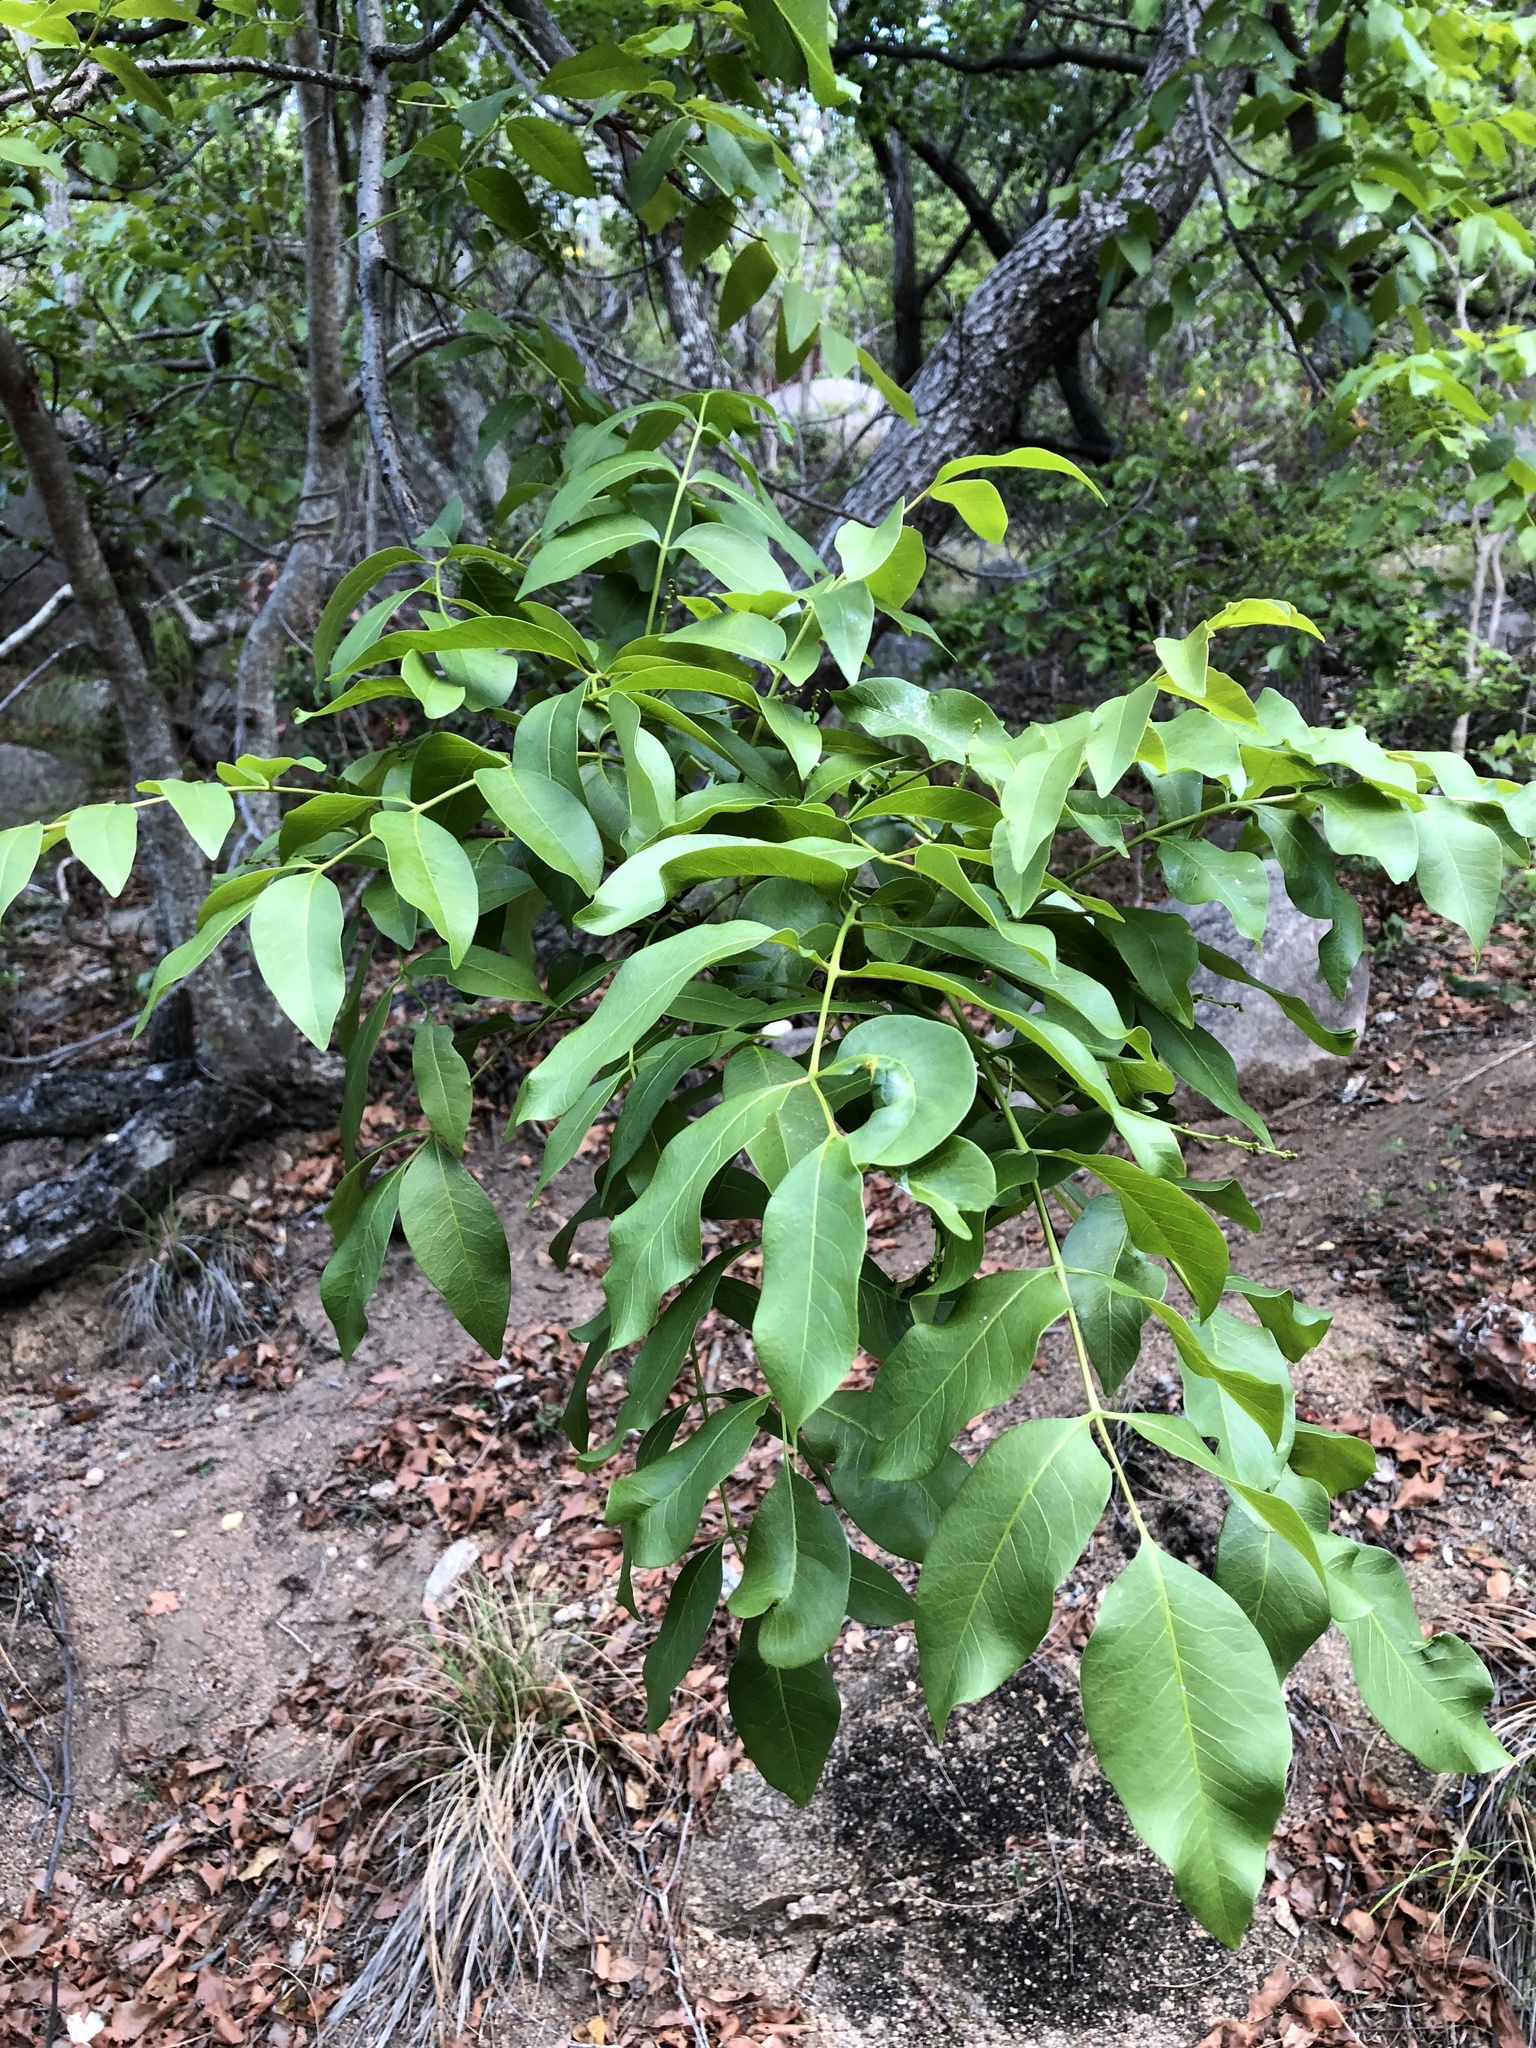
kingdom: Plantae
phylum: Tracheophyta
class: Magnoliopsida
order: Sapindales
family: Anacardiaceae
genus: Pleiogynium
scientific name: Pleiogynium timoriense
